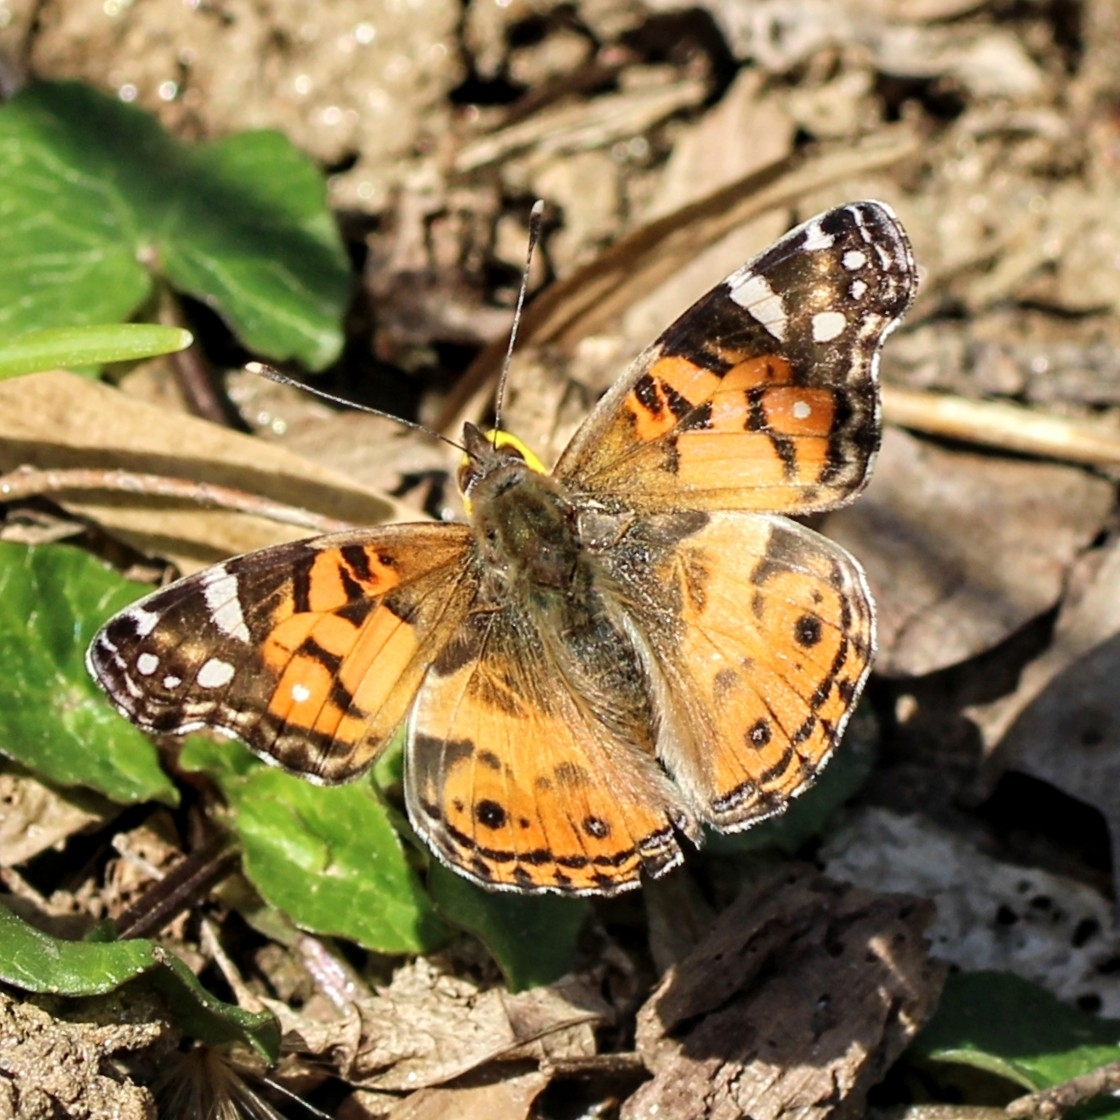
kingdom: Animalia
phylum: Arthropoda
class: Insecta
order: Lepidoptera
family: Nymphalidae
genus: Vanessa
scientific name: Vanessa virginiensis
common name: American lady
